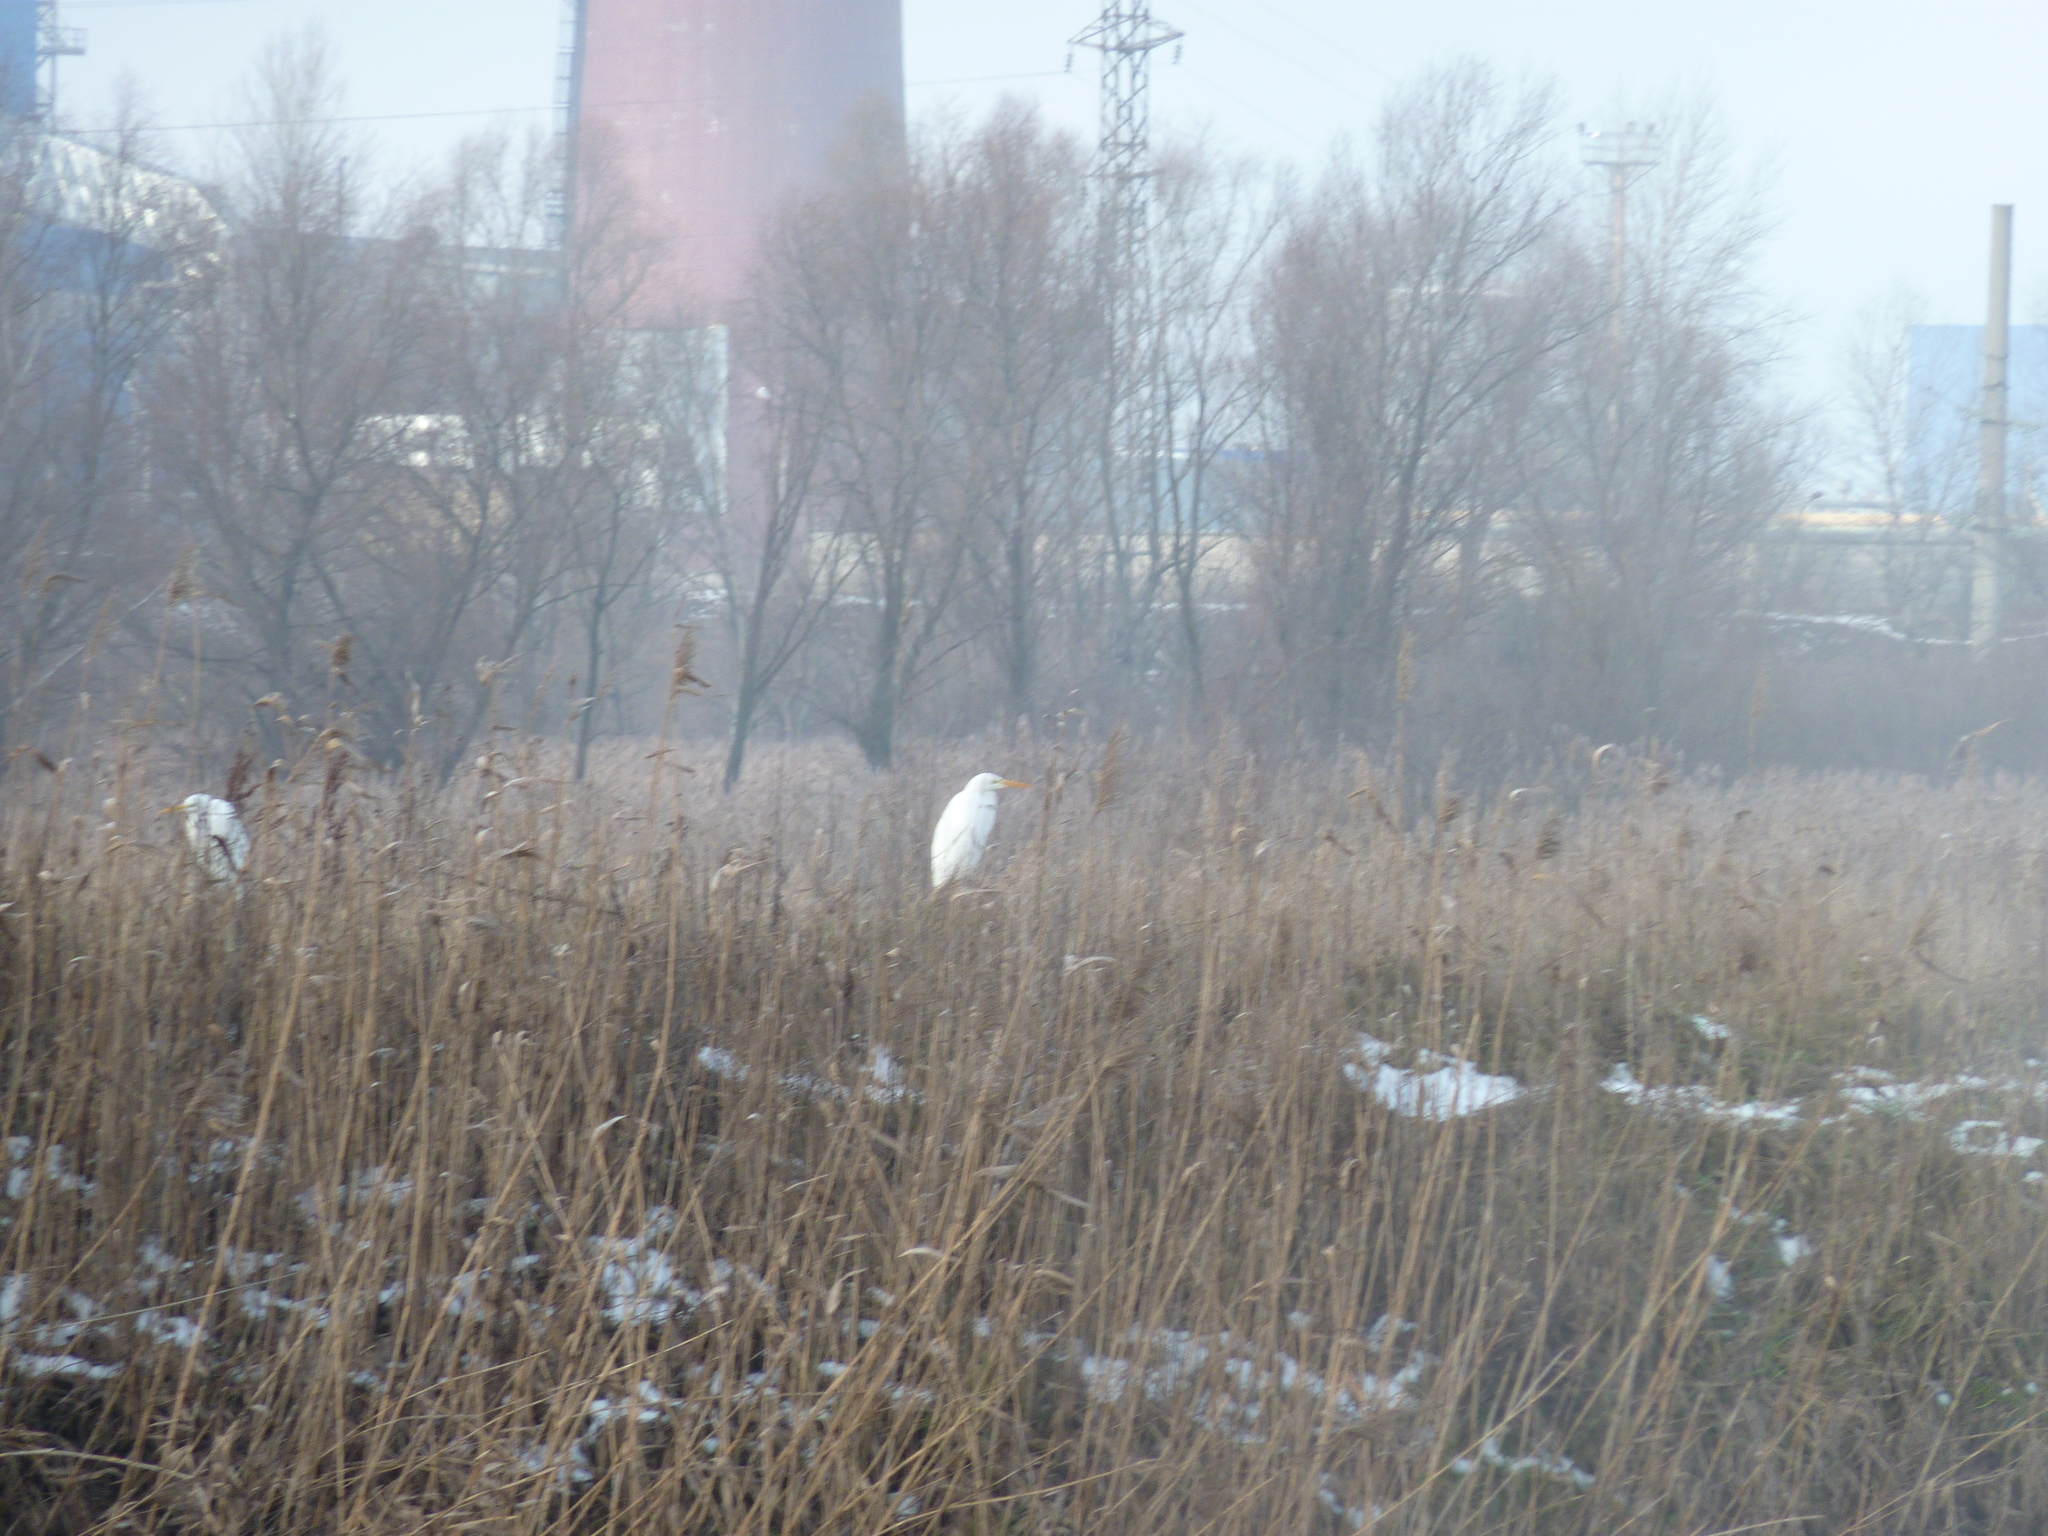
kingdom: Animalia
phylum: Chordata
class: Aves
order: Pelecaniformes
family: Ardeidae
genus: Ardea
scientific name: Ardea alba
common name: Great egret
